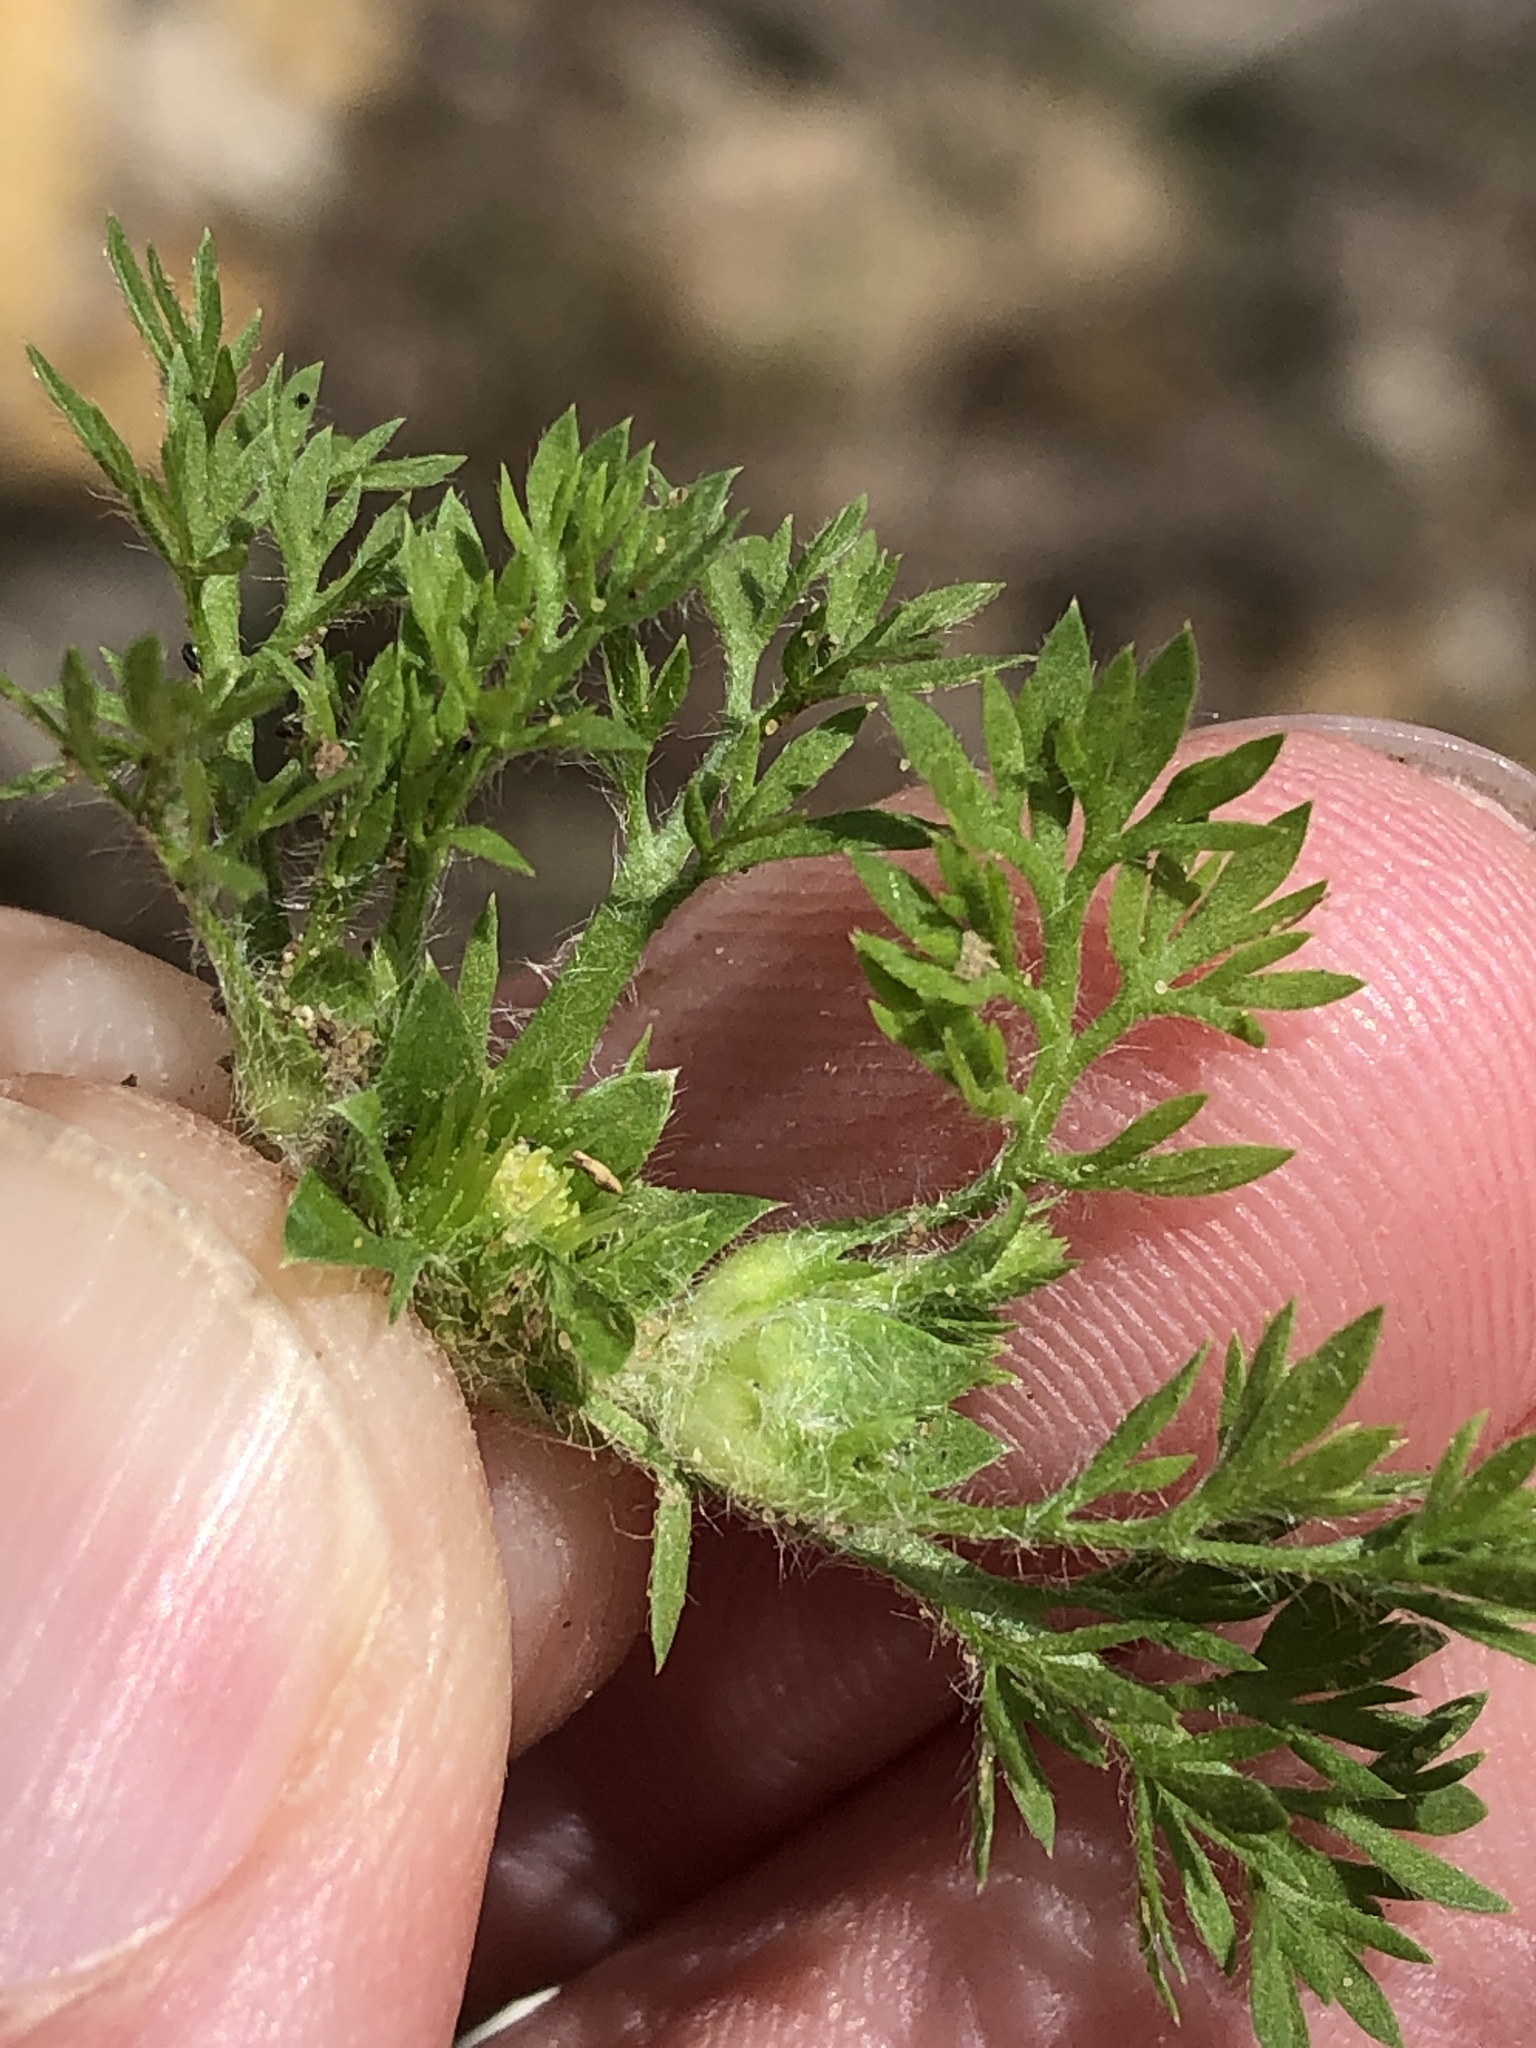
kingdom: Plantae
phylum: Tracheophyta
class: Magnoliopsida
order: Asterales
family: Asteraceae
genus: Soliva
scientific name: Soliva sessilis
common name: Field burrweed
